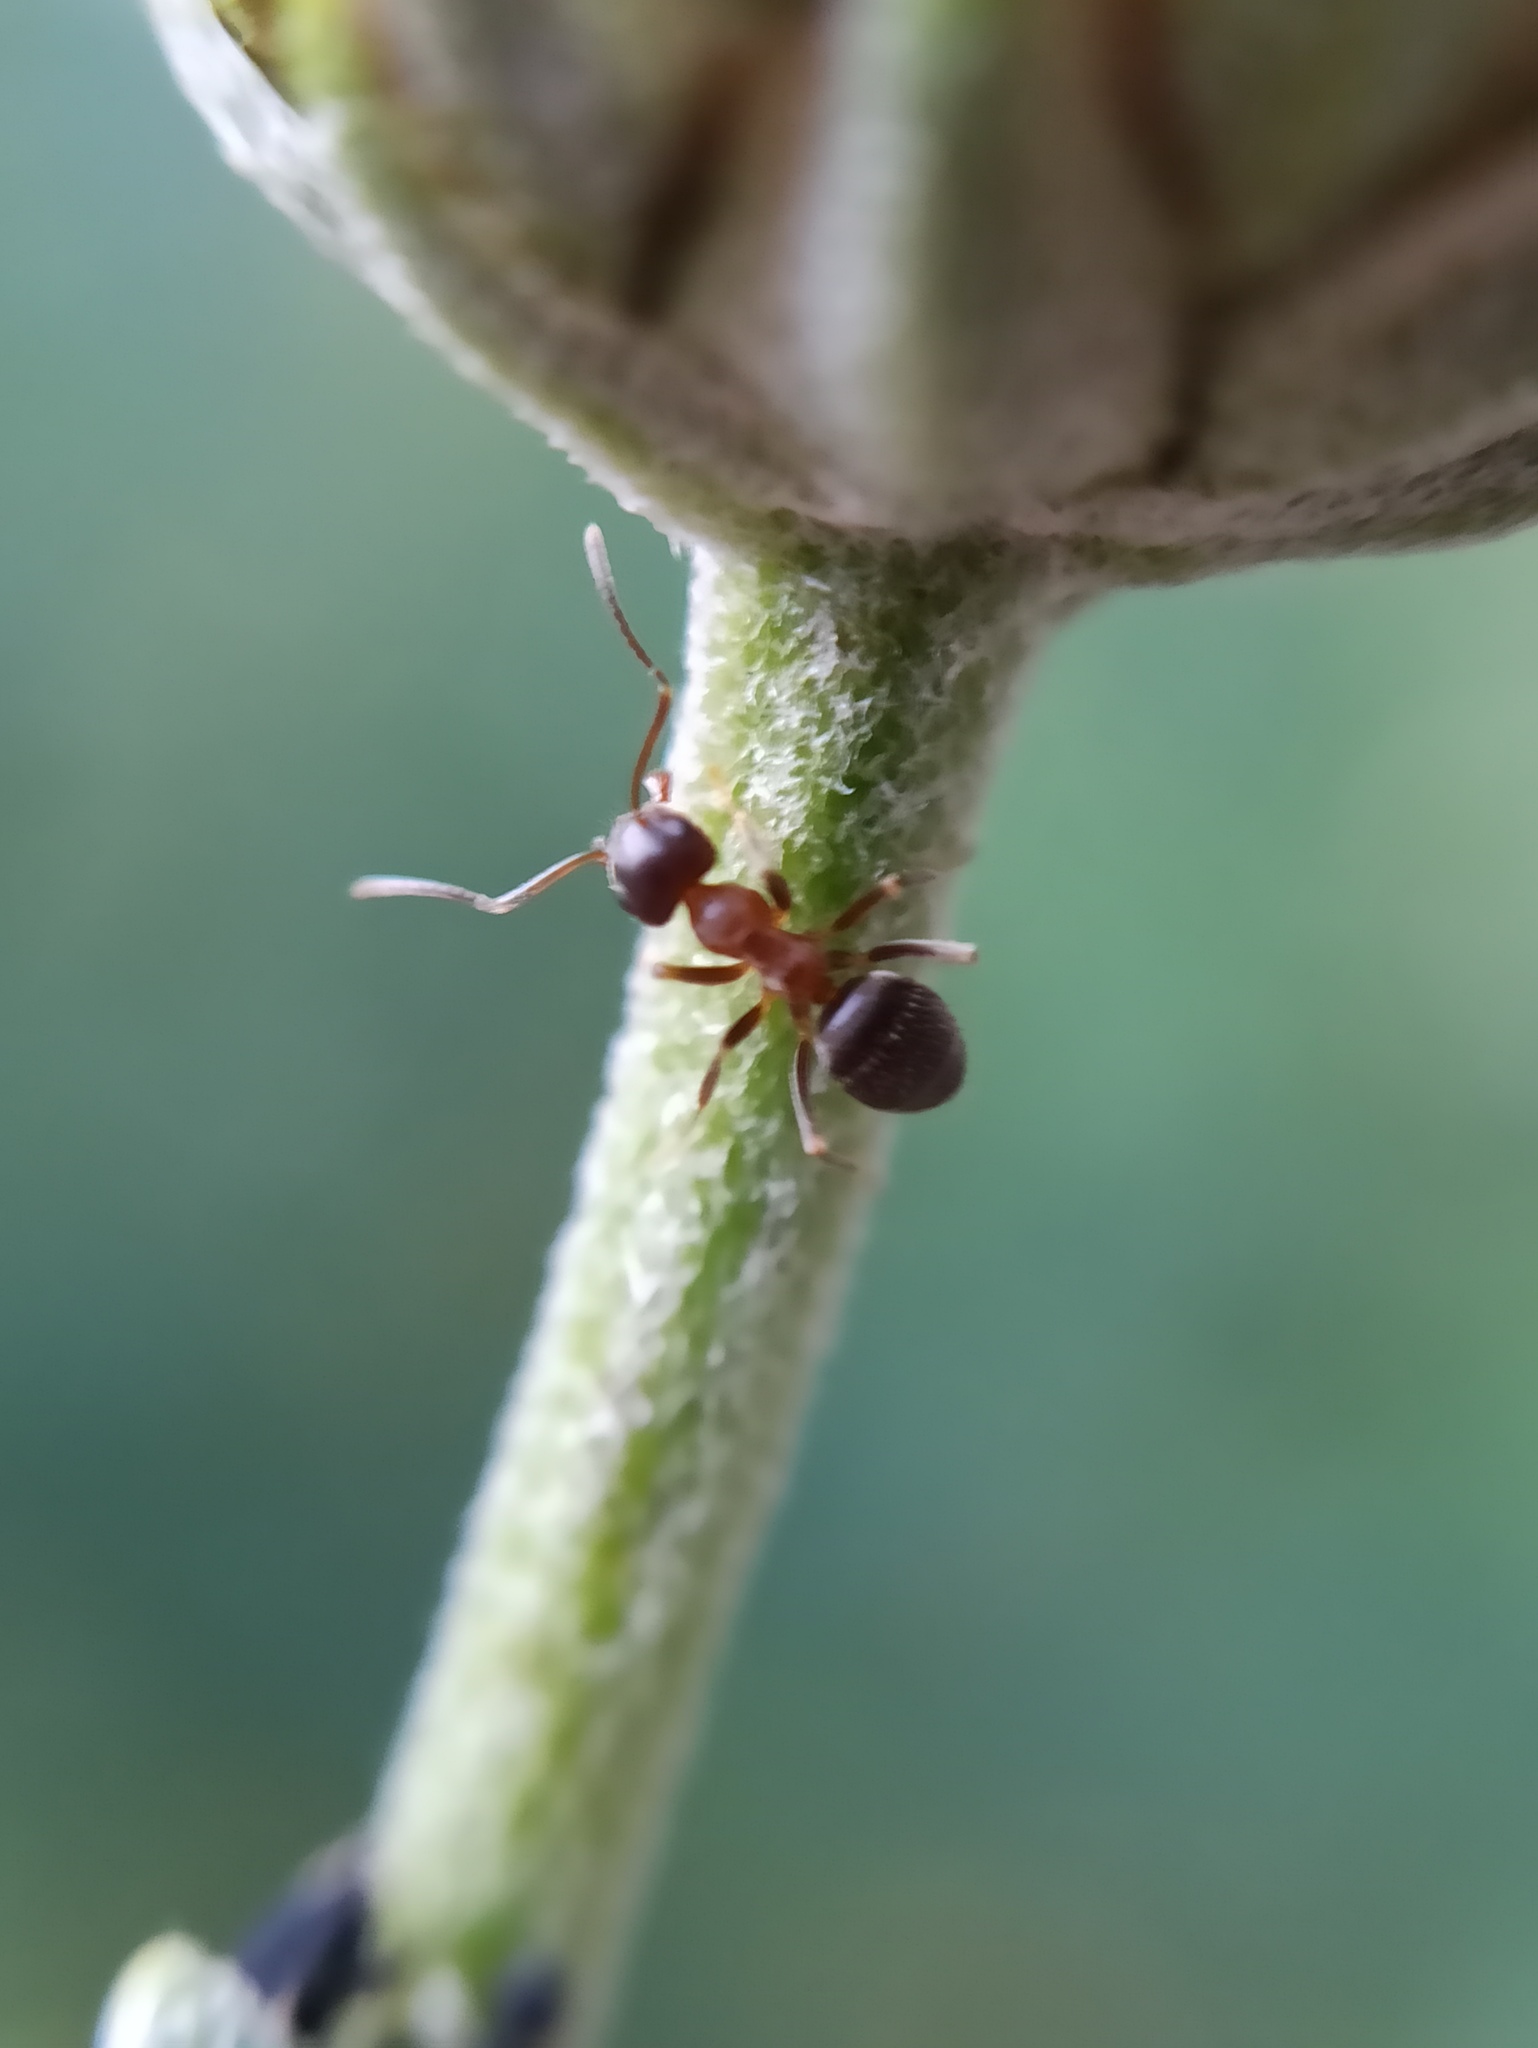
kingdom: Animalia
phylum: Arthropoda
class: Insecta
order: Hymenoptera
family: Formicidae
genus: Lasius
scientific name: Lasius emarginatus
